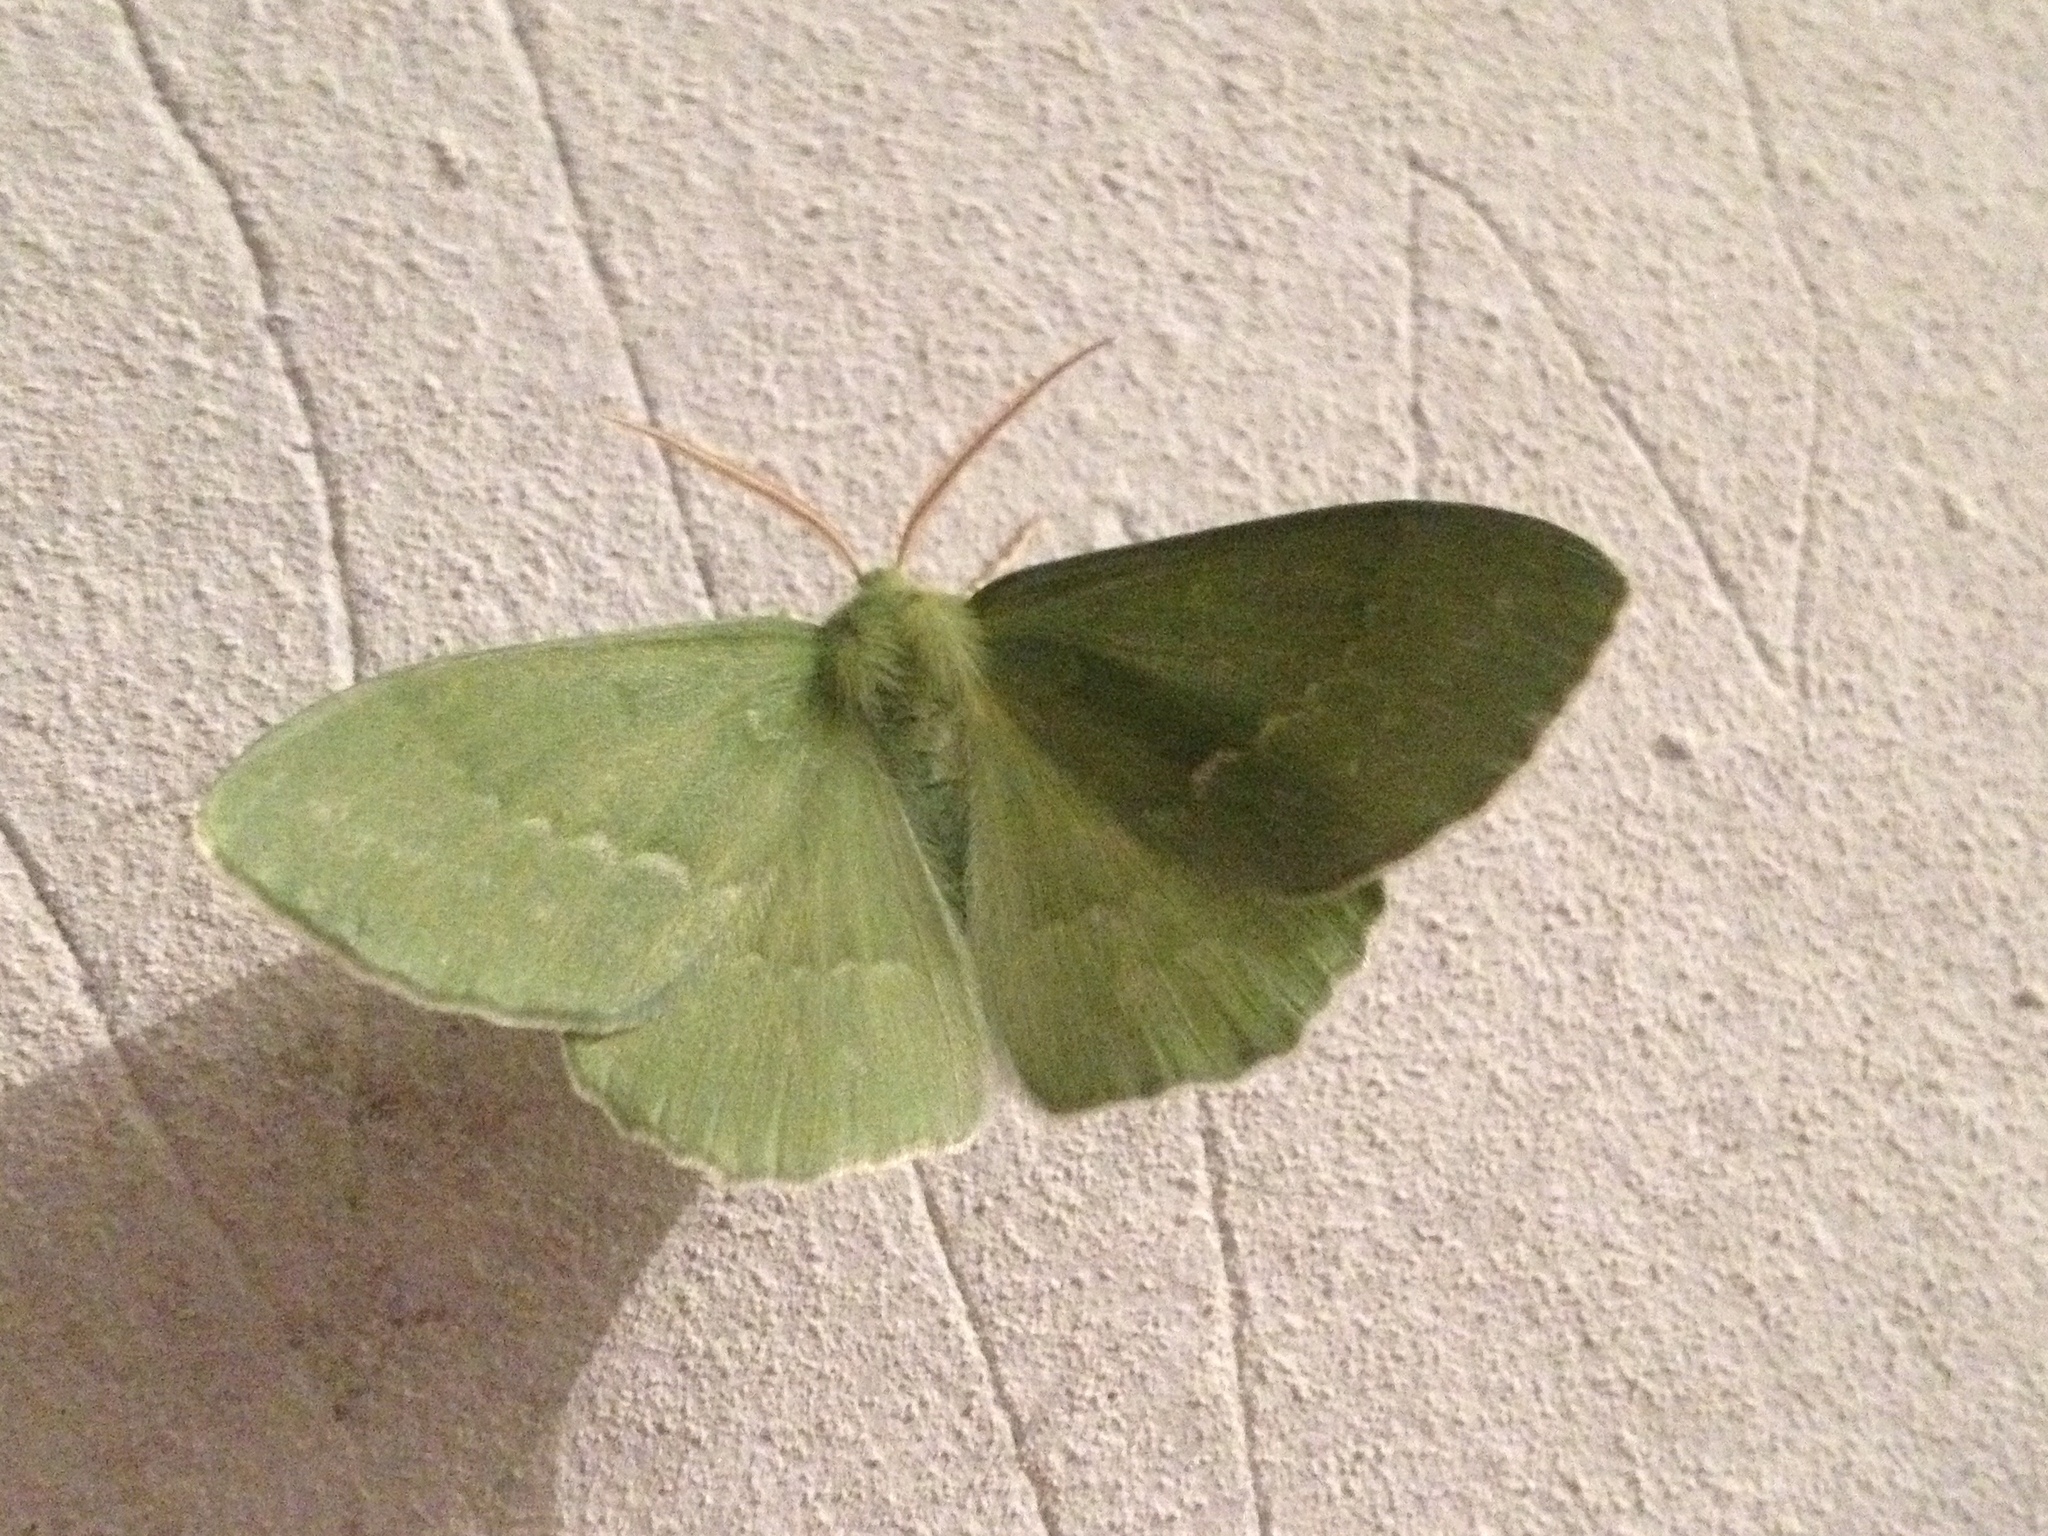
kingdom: Animalia
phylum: Arthropoda
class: Insecta
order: Lepidoptera
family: Geometridae
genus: Geometra
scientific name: Geometra papilionaria
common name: Large emerald
